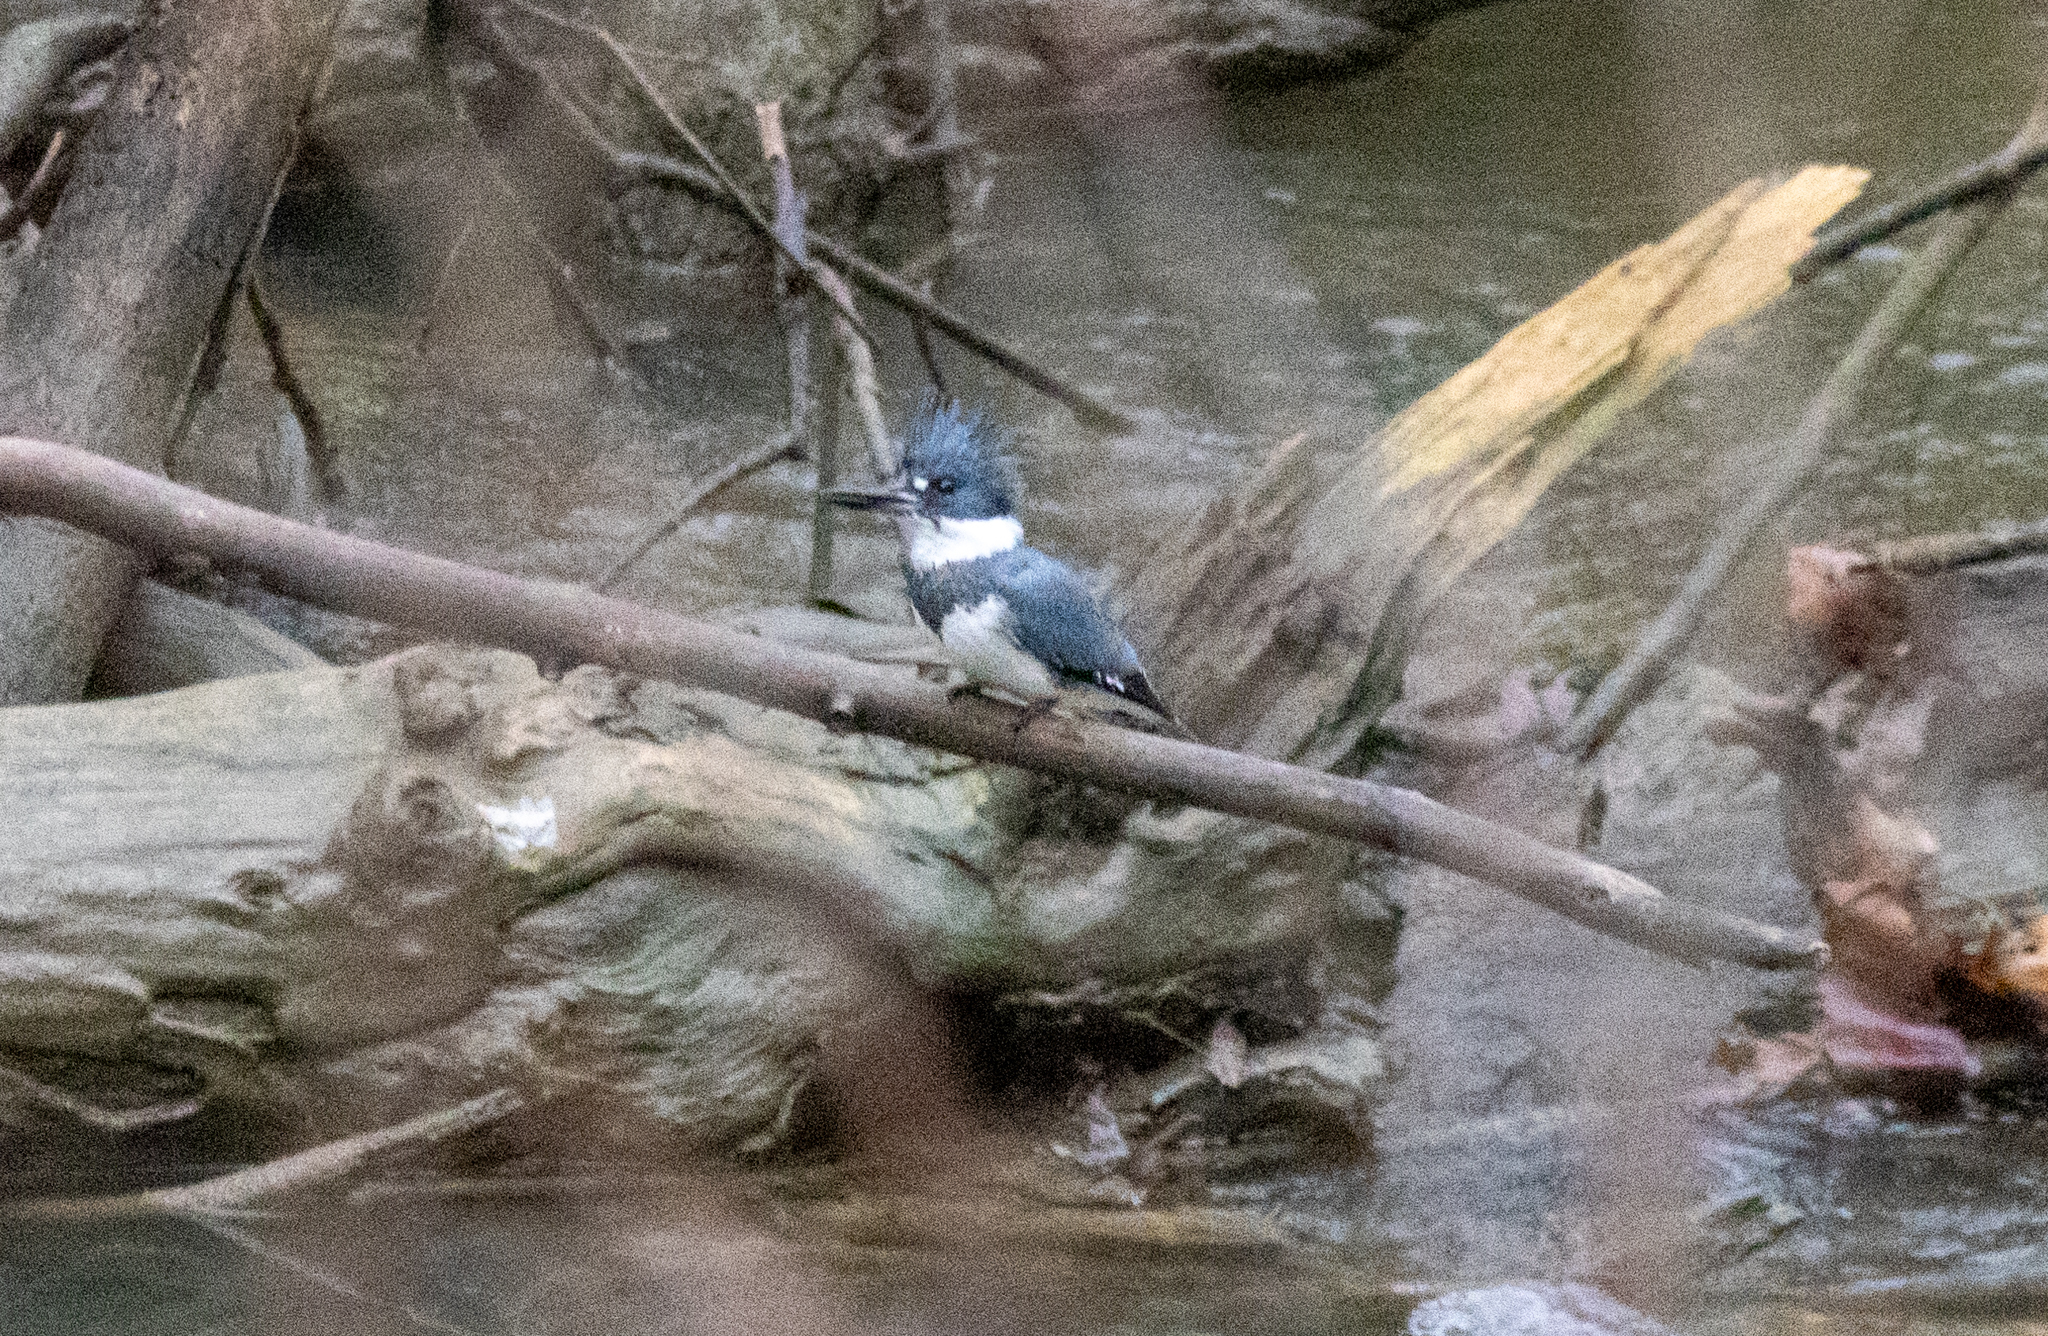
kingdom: Animalia
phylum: Chordata
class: Aves
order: Coraciiformes
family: Alcedinidae
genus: Megaceryle
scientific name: Megaceryle alcyon
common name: Belted kingfisher
